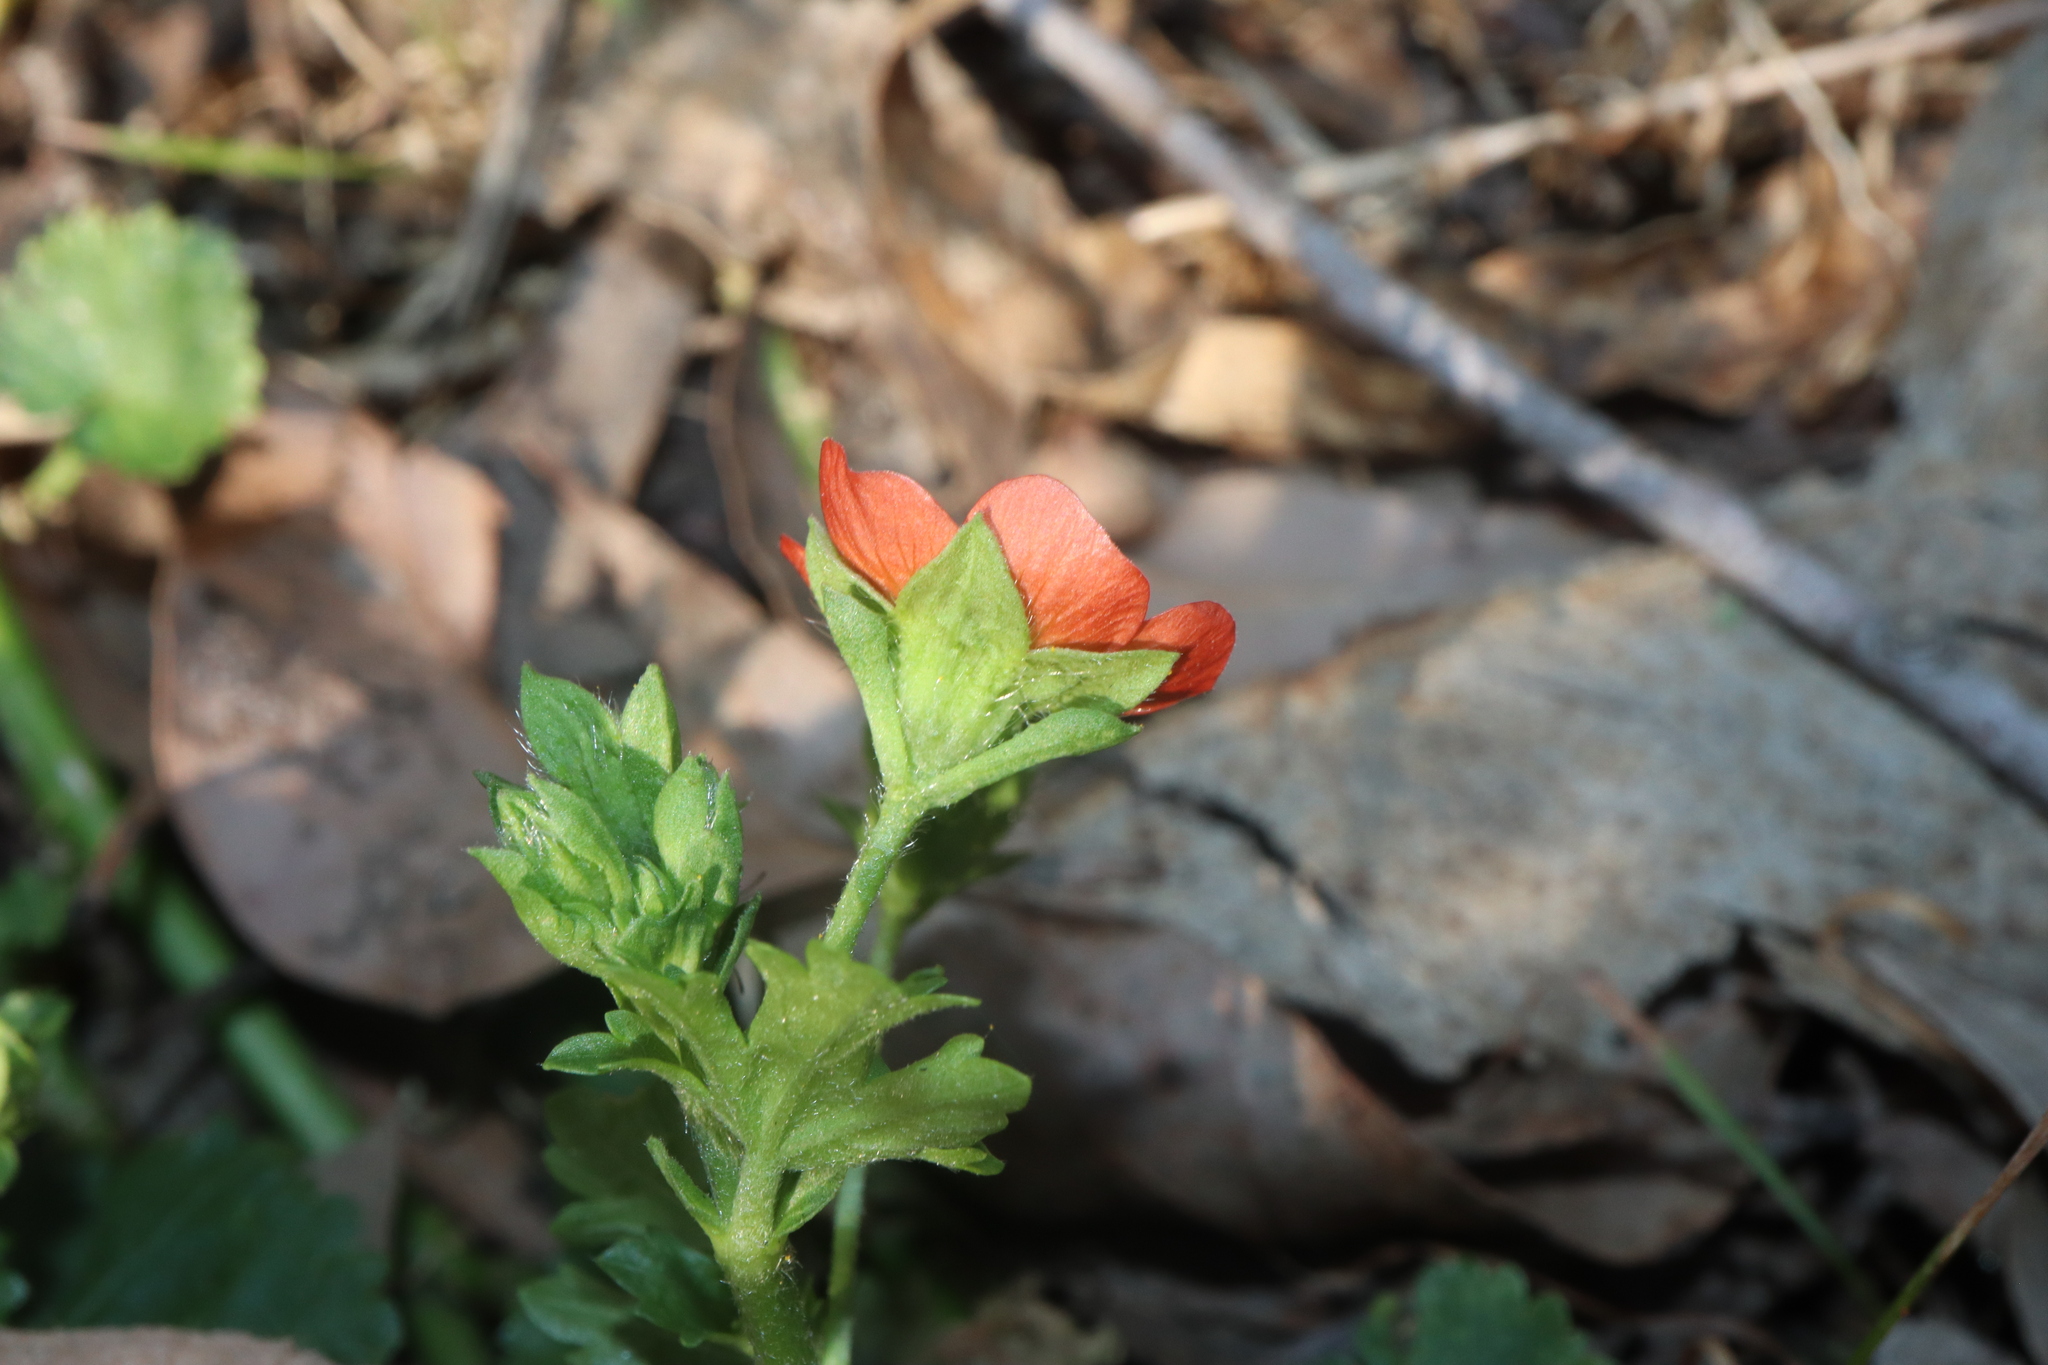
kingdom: Plantae
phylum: Tracheophyta
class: Magnoliopsida
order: Malvales
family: Malvaceae
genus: Modiola
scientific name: Modiola caroliniana
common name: Carolina bristlemallow
